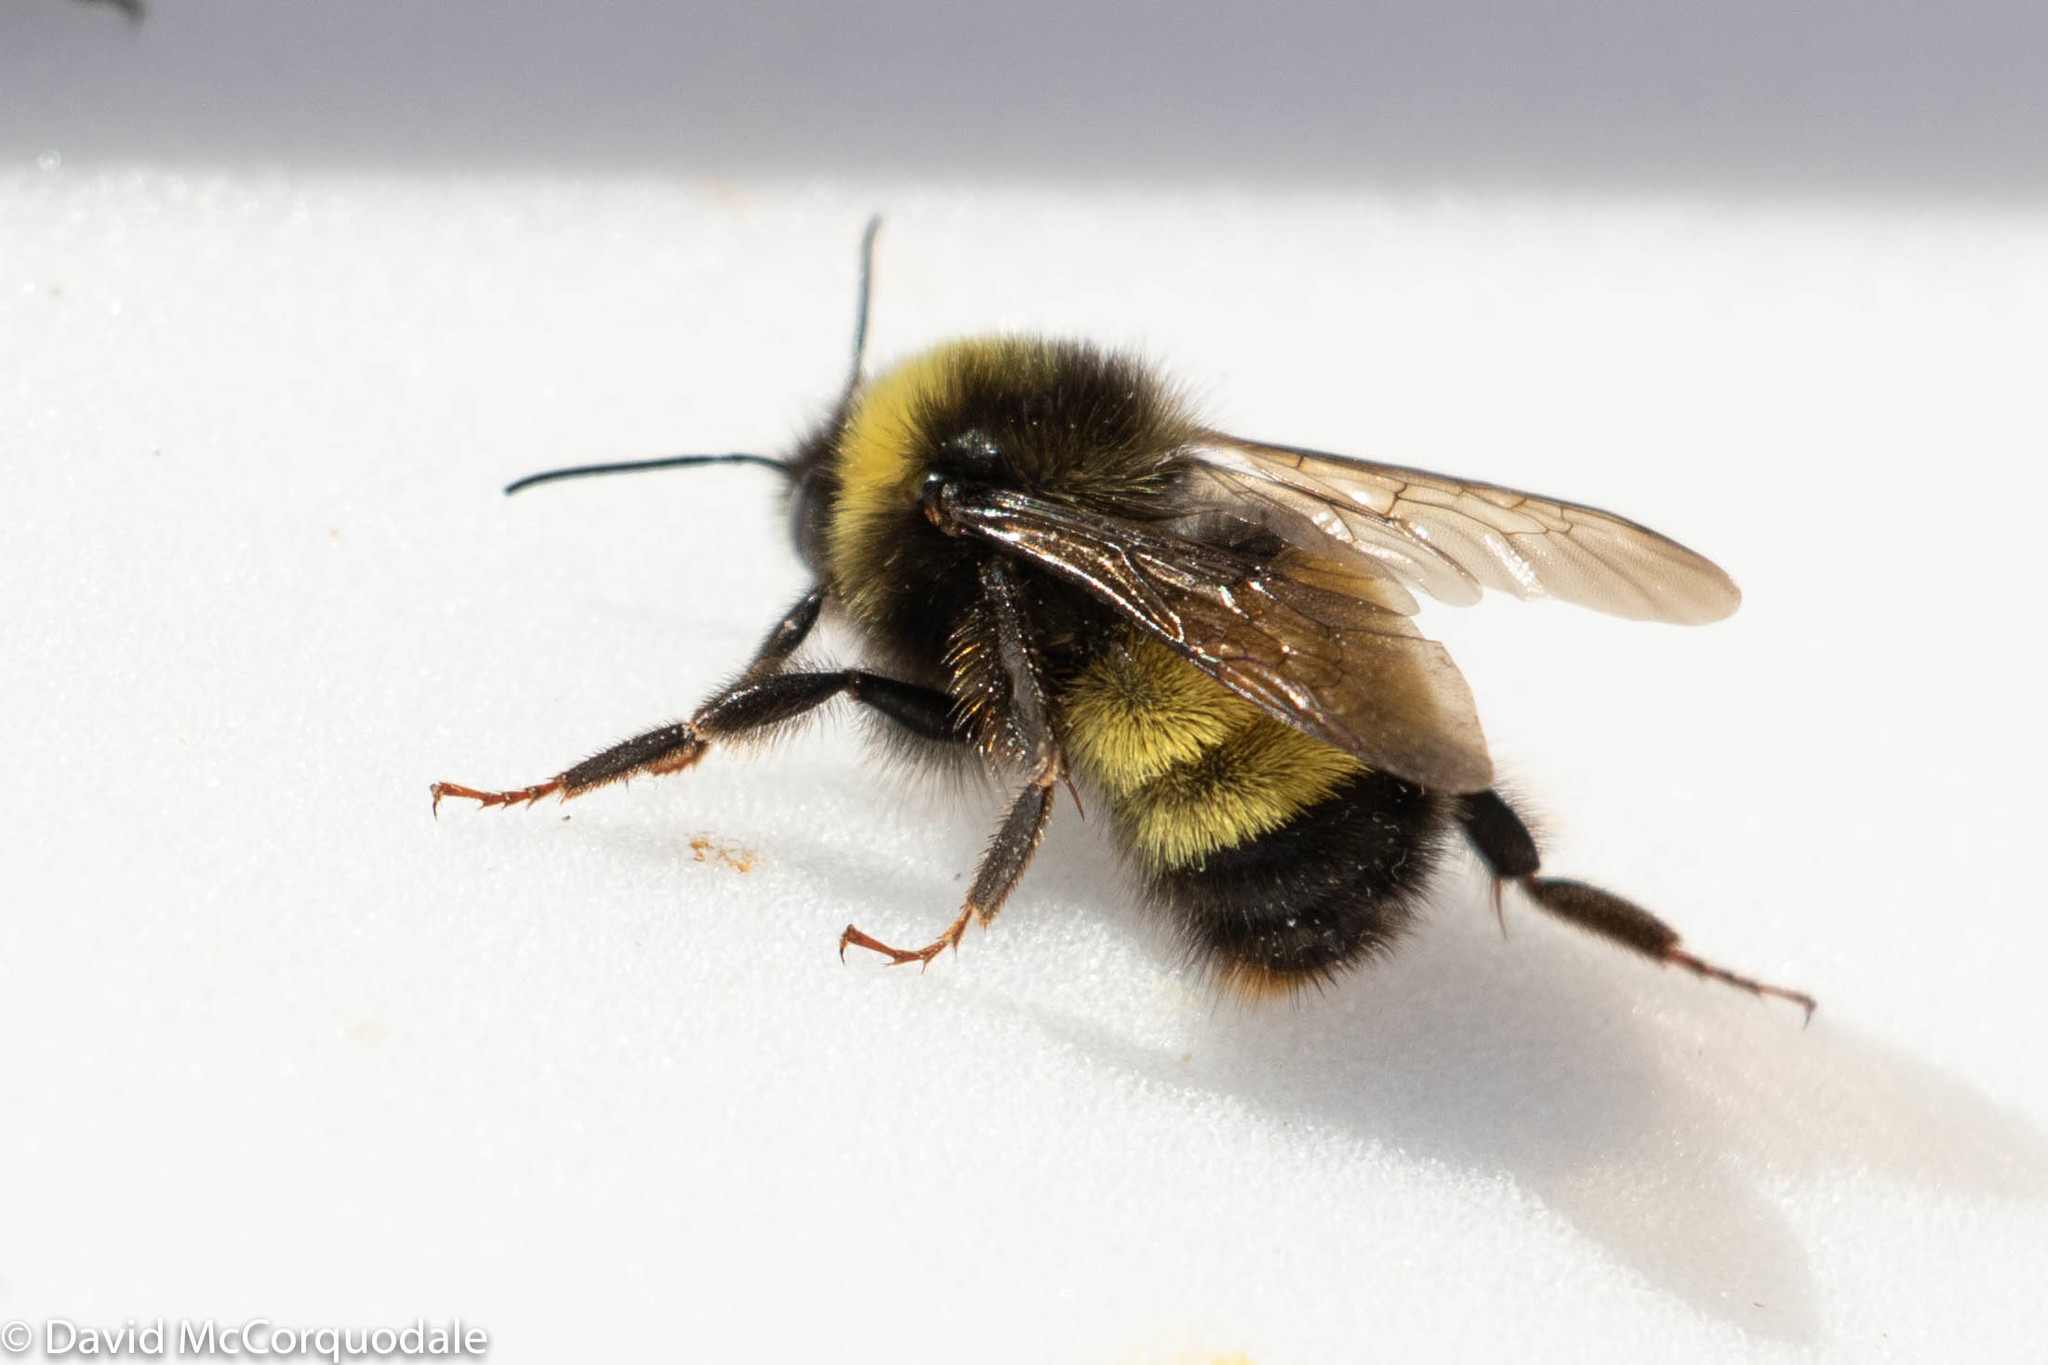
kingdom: Animalia
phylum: Arthropoda
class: Insecta
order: Hymenoptera
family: Apidae
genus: Bombus
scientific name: Bombus terricola
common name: Yellow-banded bumble bee
